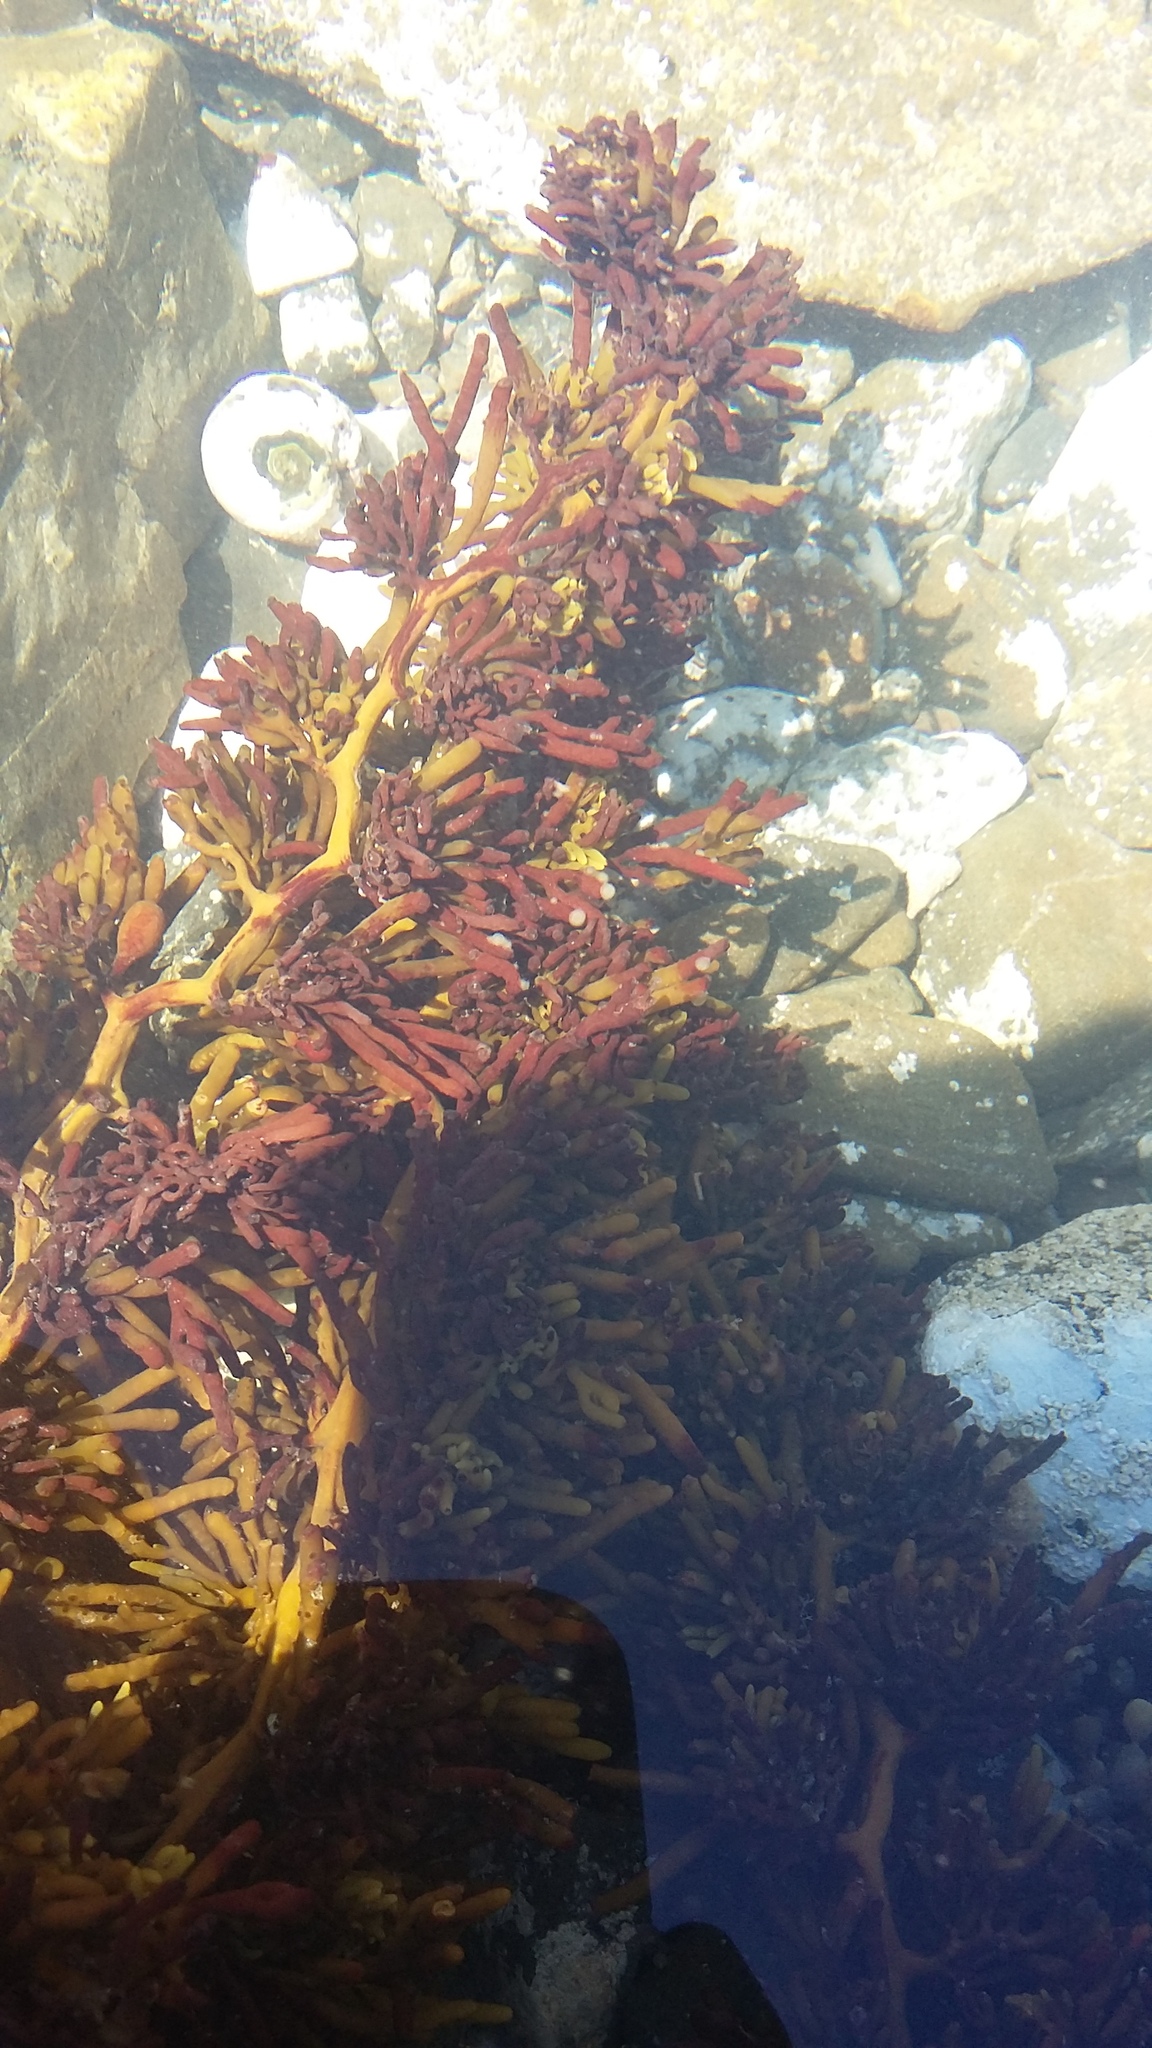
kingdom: Chromista
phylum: Ochrophyta
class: Phaeophyceae
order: Fucales
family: Sargassaceae
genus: Cystophora
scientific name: Cystophora torulosa
